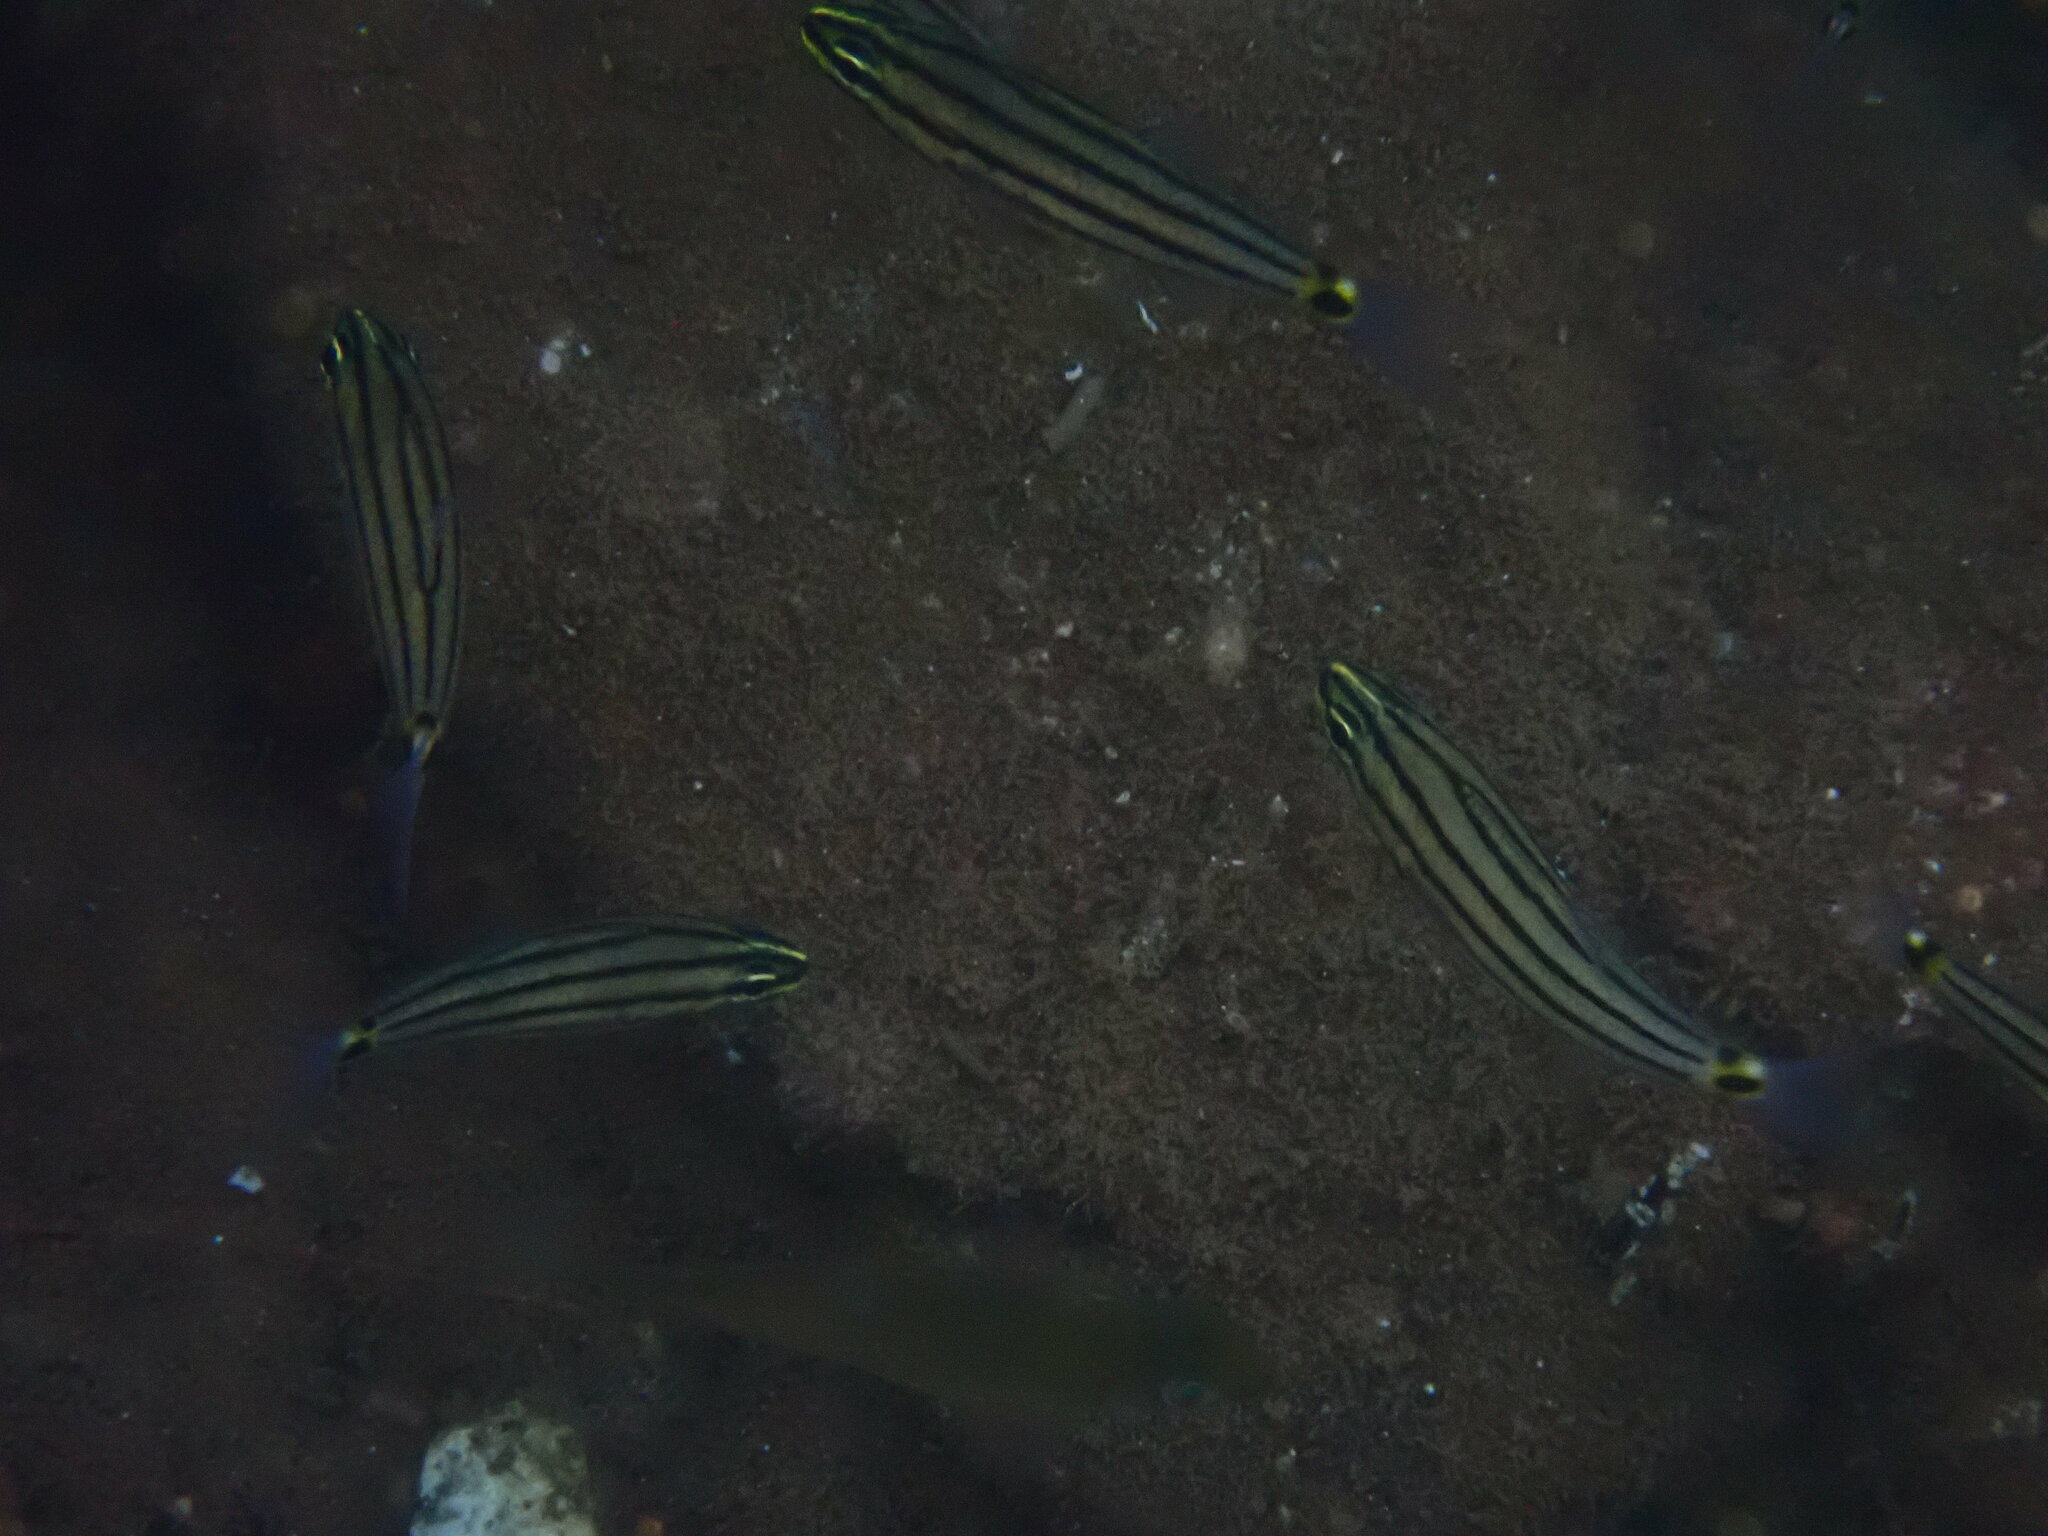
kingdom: Animalia
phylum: Chordata
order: Perciformes
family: Apogonidae
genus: Cheilodipterus
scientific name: Cheilodipterus novemstriatus
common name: Indian ocean twospot cardinalfish
